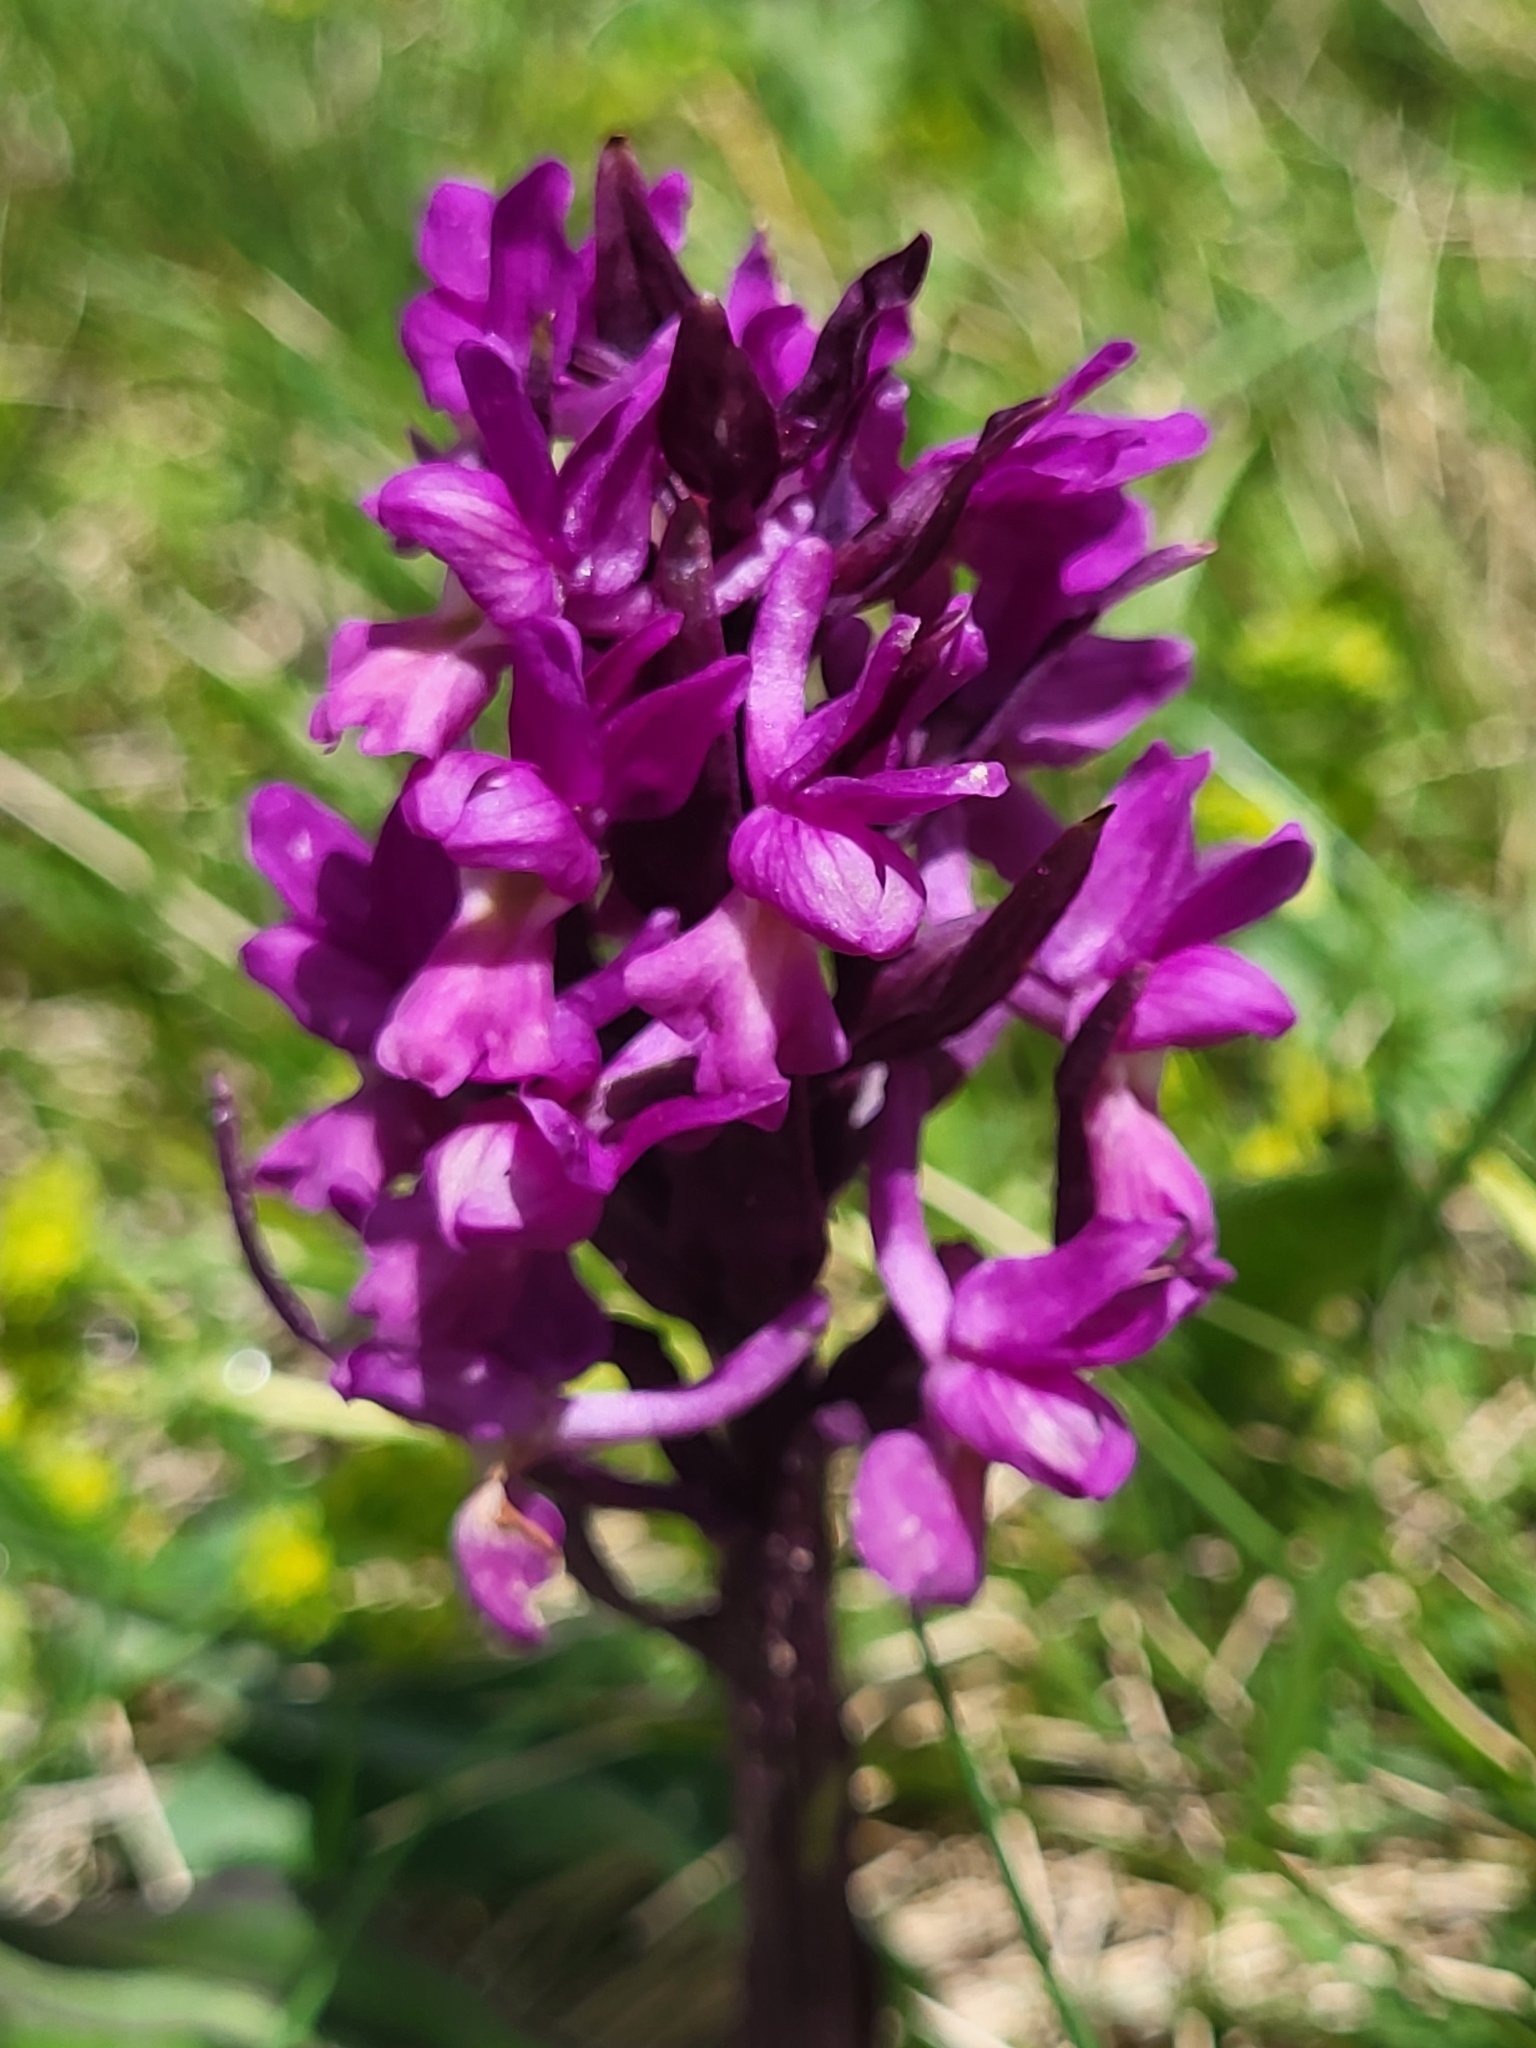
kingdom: Plantae
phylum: Tracheophyta
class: Liliopsida
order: Asparagales
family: Orchidaceae
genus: Dactylorhiza
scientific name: Dactylorhiza romana
